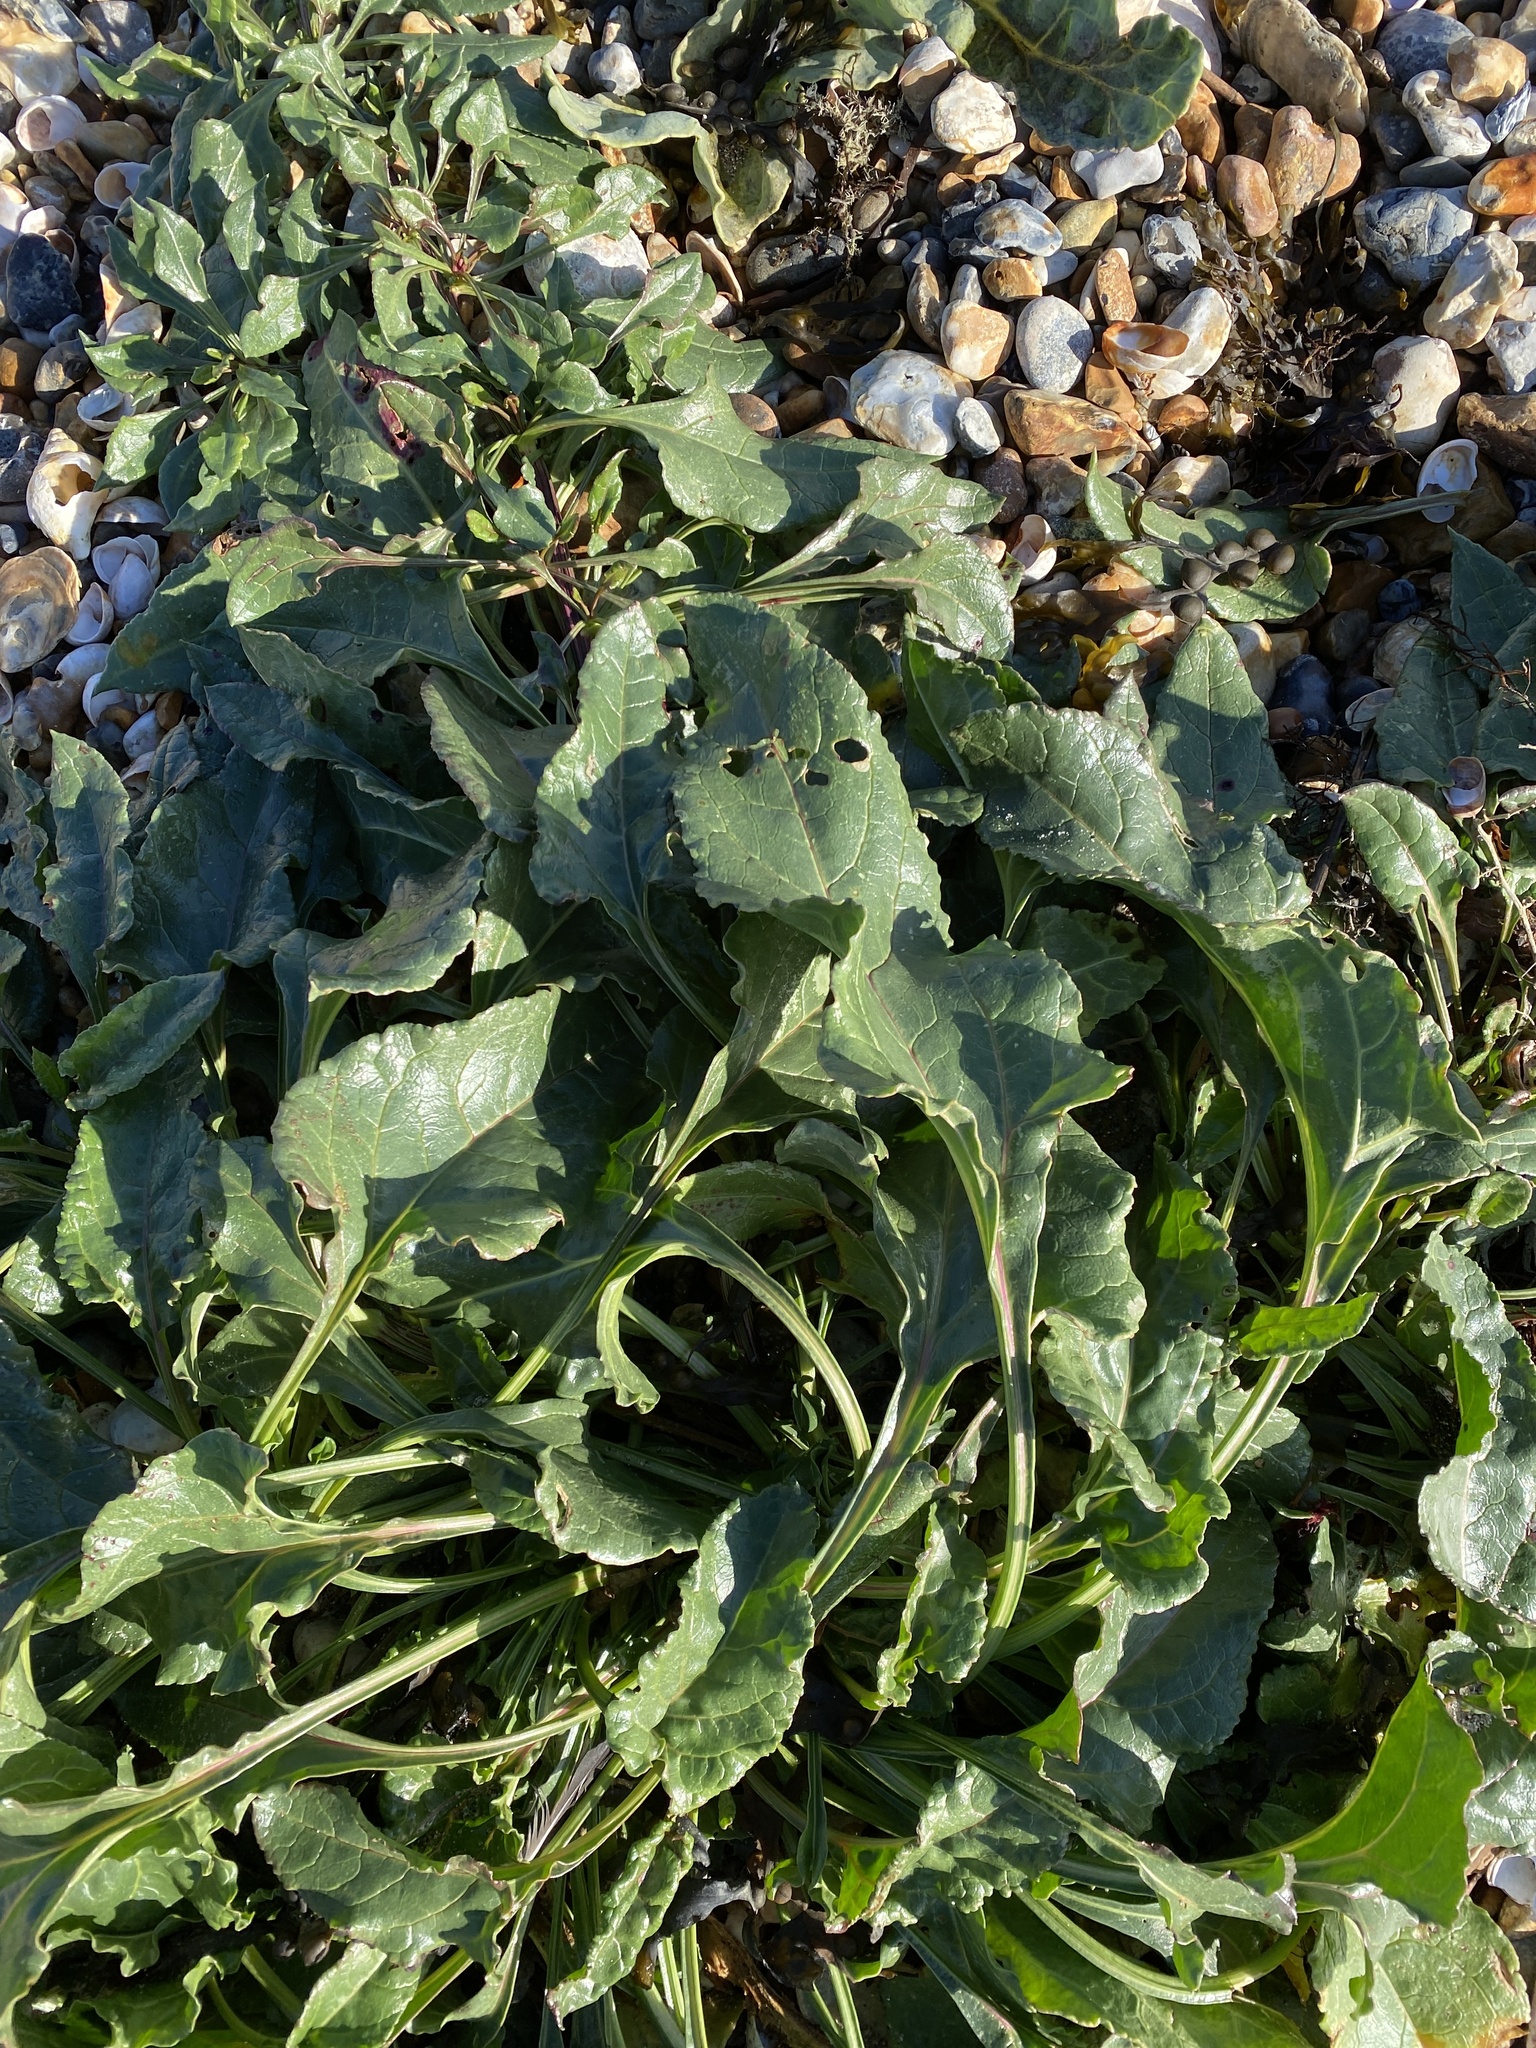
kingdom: Plantae
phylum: Tracheophyta
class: Magnoliopsida
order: Caryophyllales
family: Amaranthaceae
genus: Beta
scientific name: Beta vulgaris
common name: Beet
